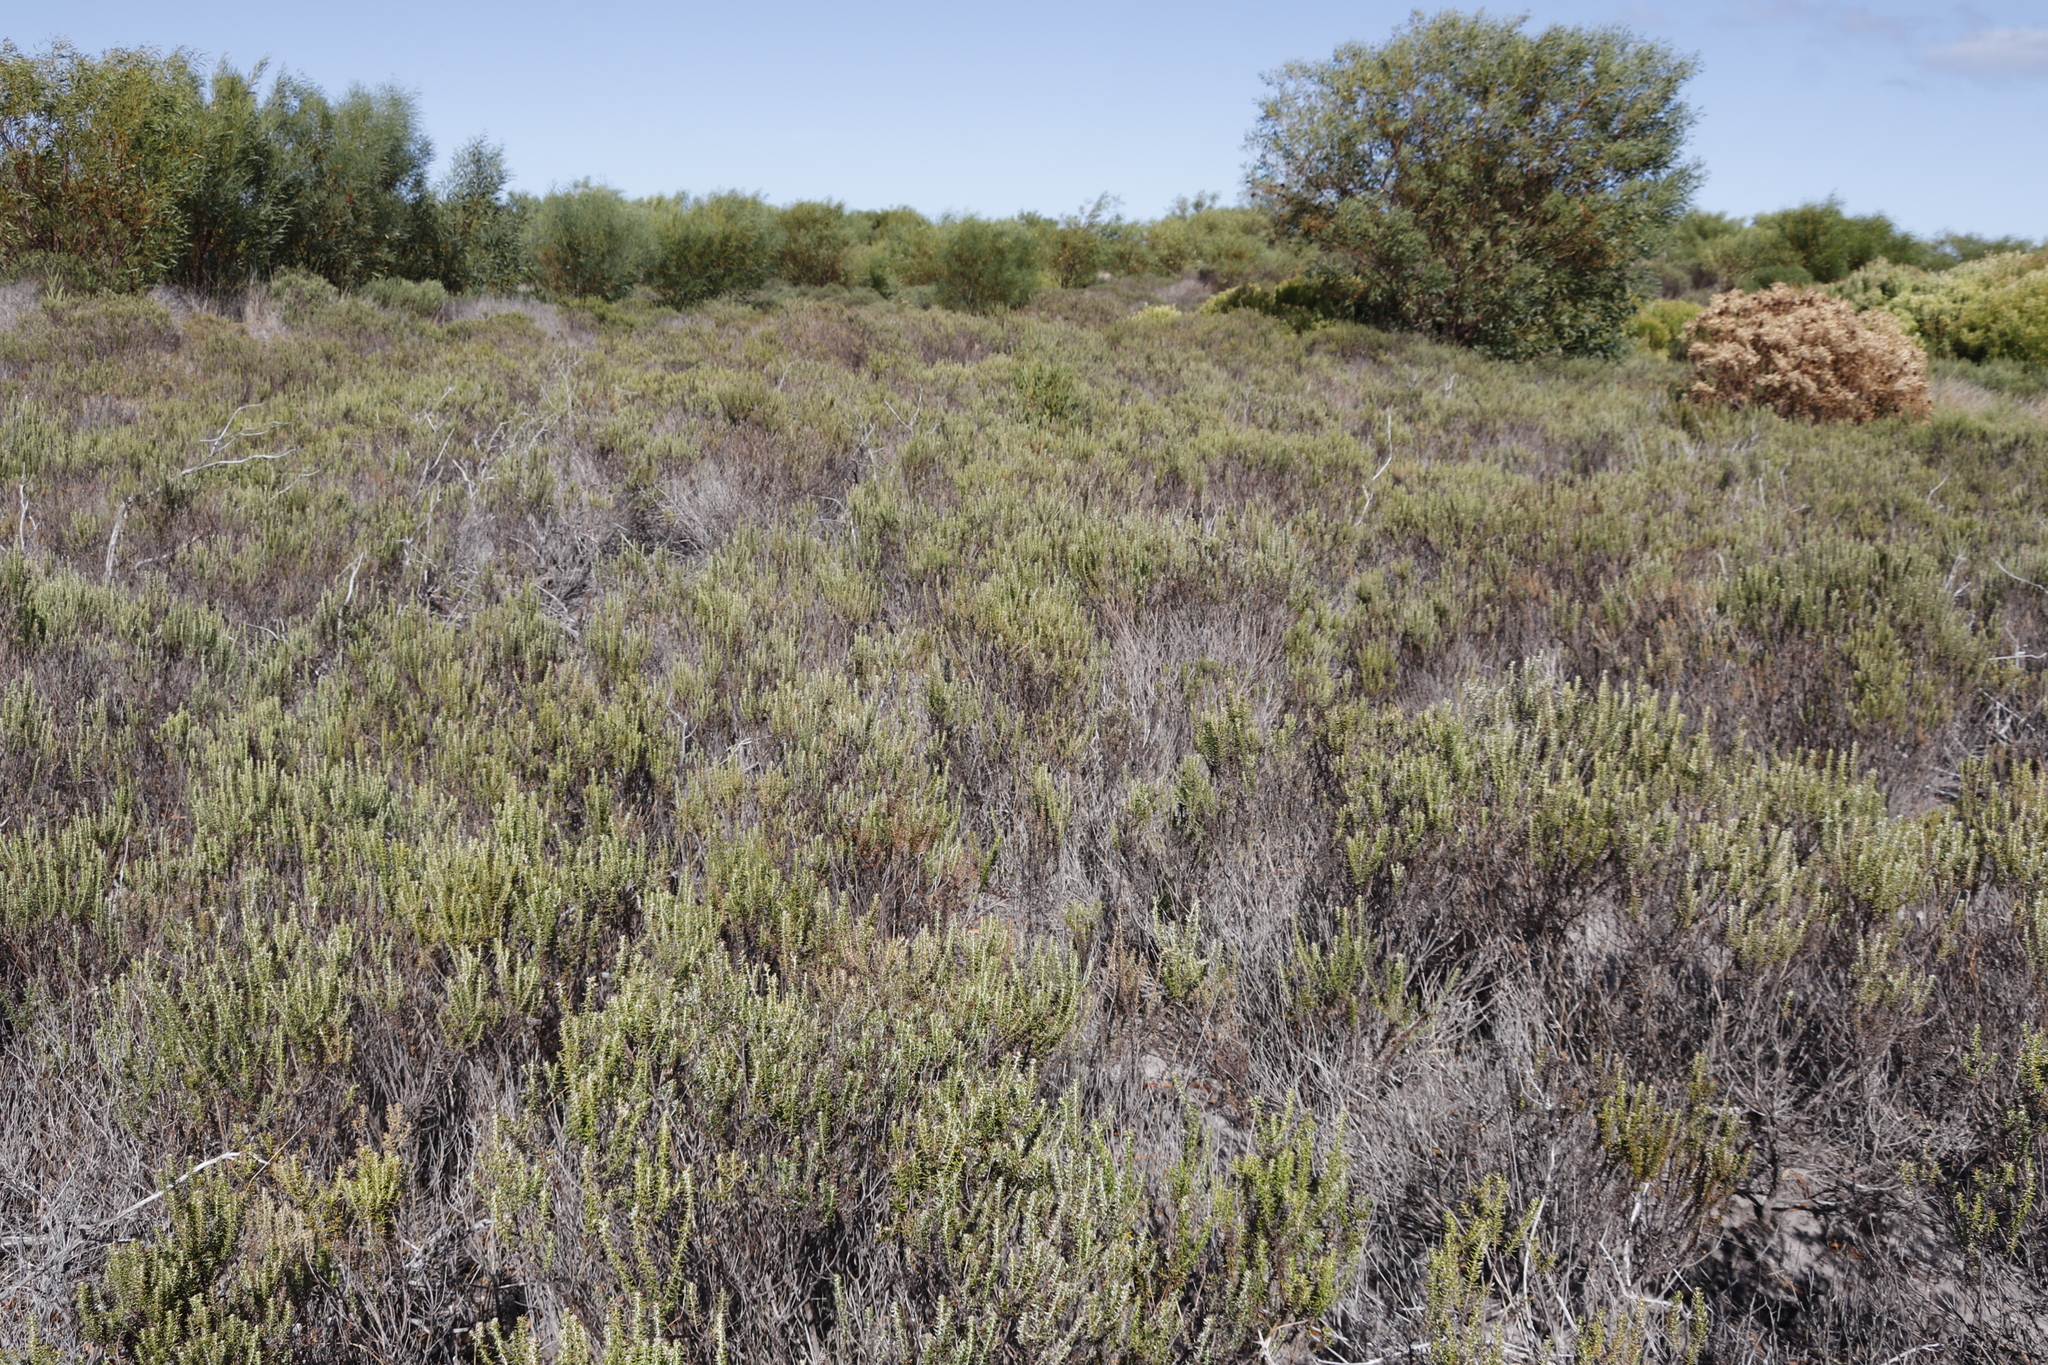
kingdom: Plantae
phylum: Tracheophyta
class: Magnoliopsida
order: Asterales
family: Asteraceae
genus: Metalasia
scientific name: Metalasia muricata
